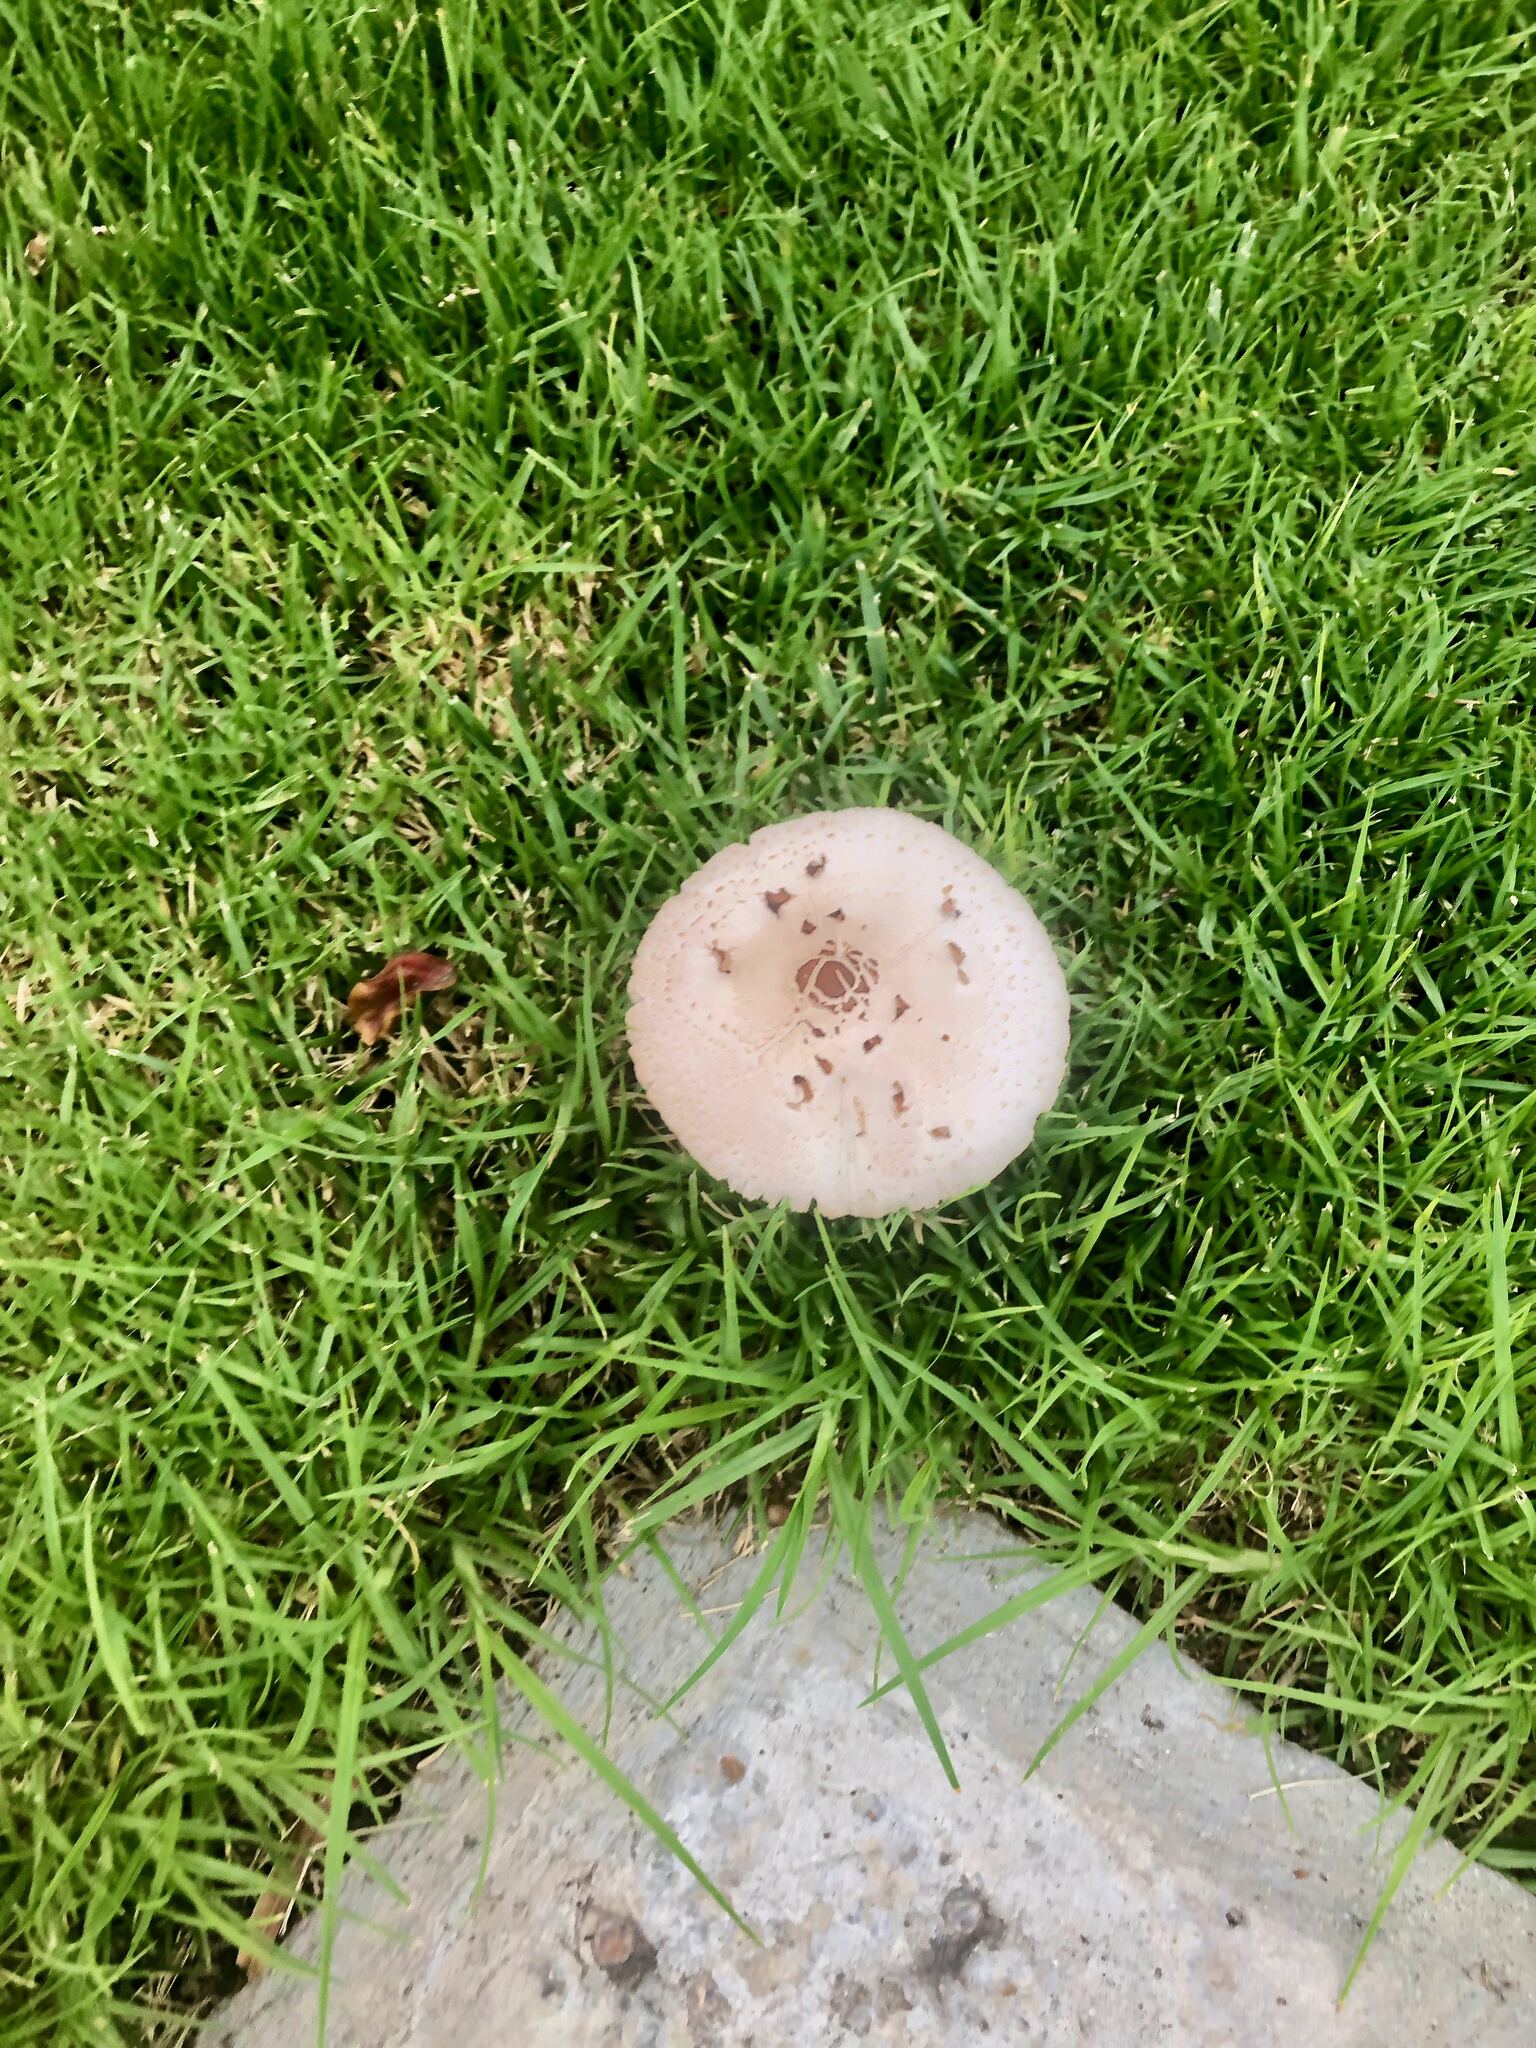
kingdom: Fungi
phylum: Basidiomycota
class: Agaricomycetes
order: Agaricales
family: Agaricaceae
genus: Chlorophyllum
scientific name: Chlorophyllum molybdites
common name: False parasol
